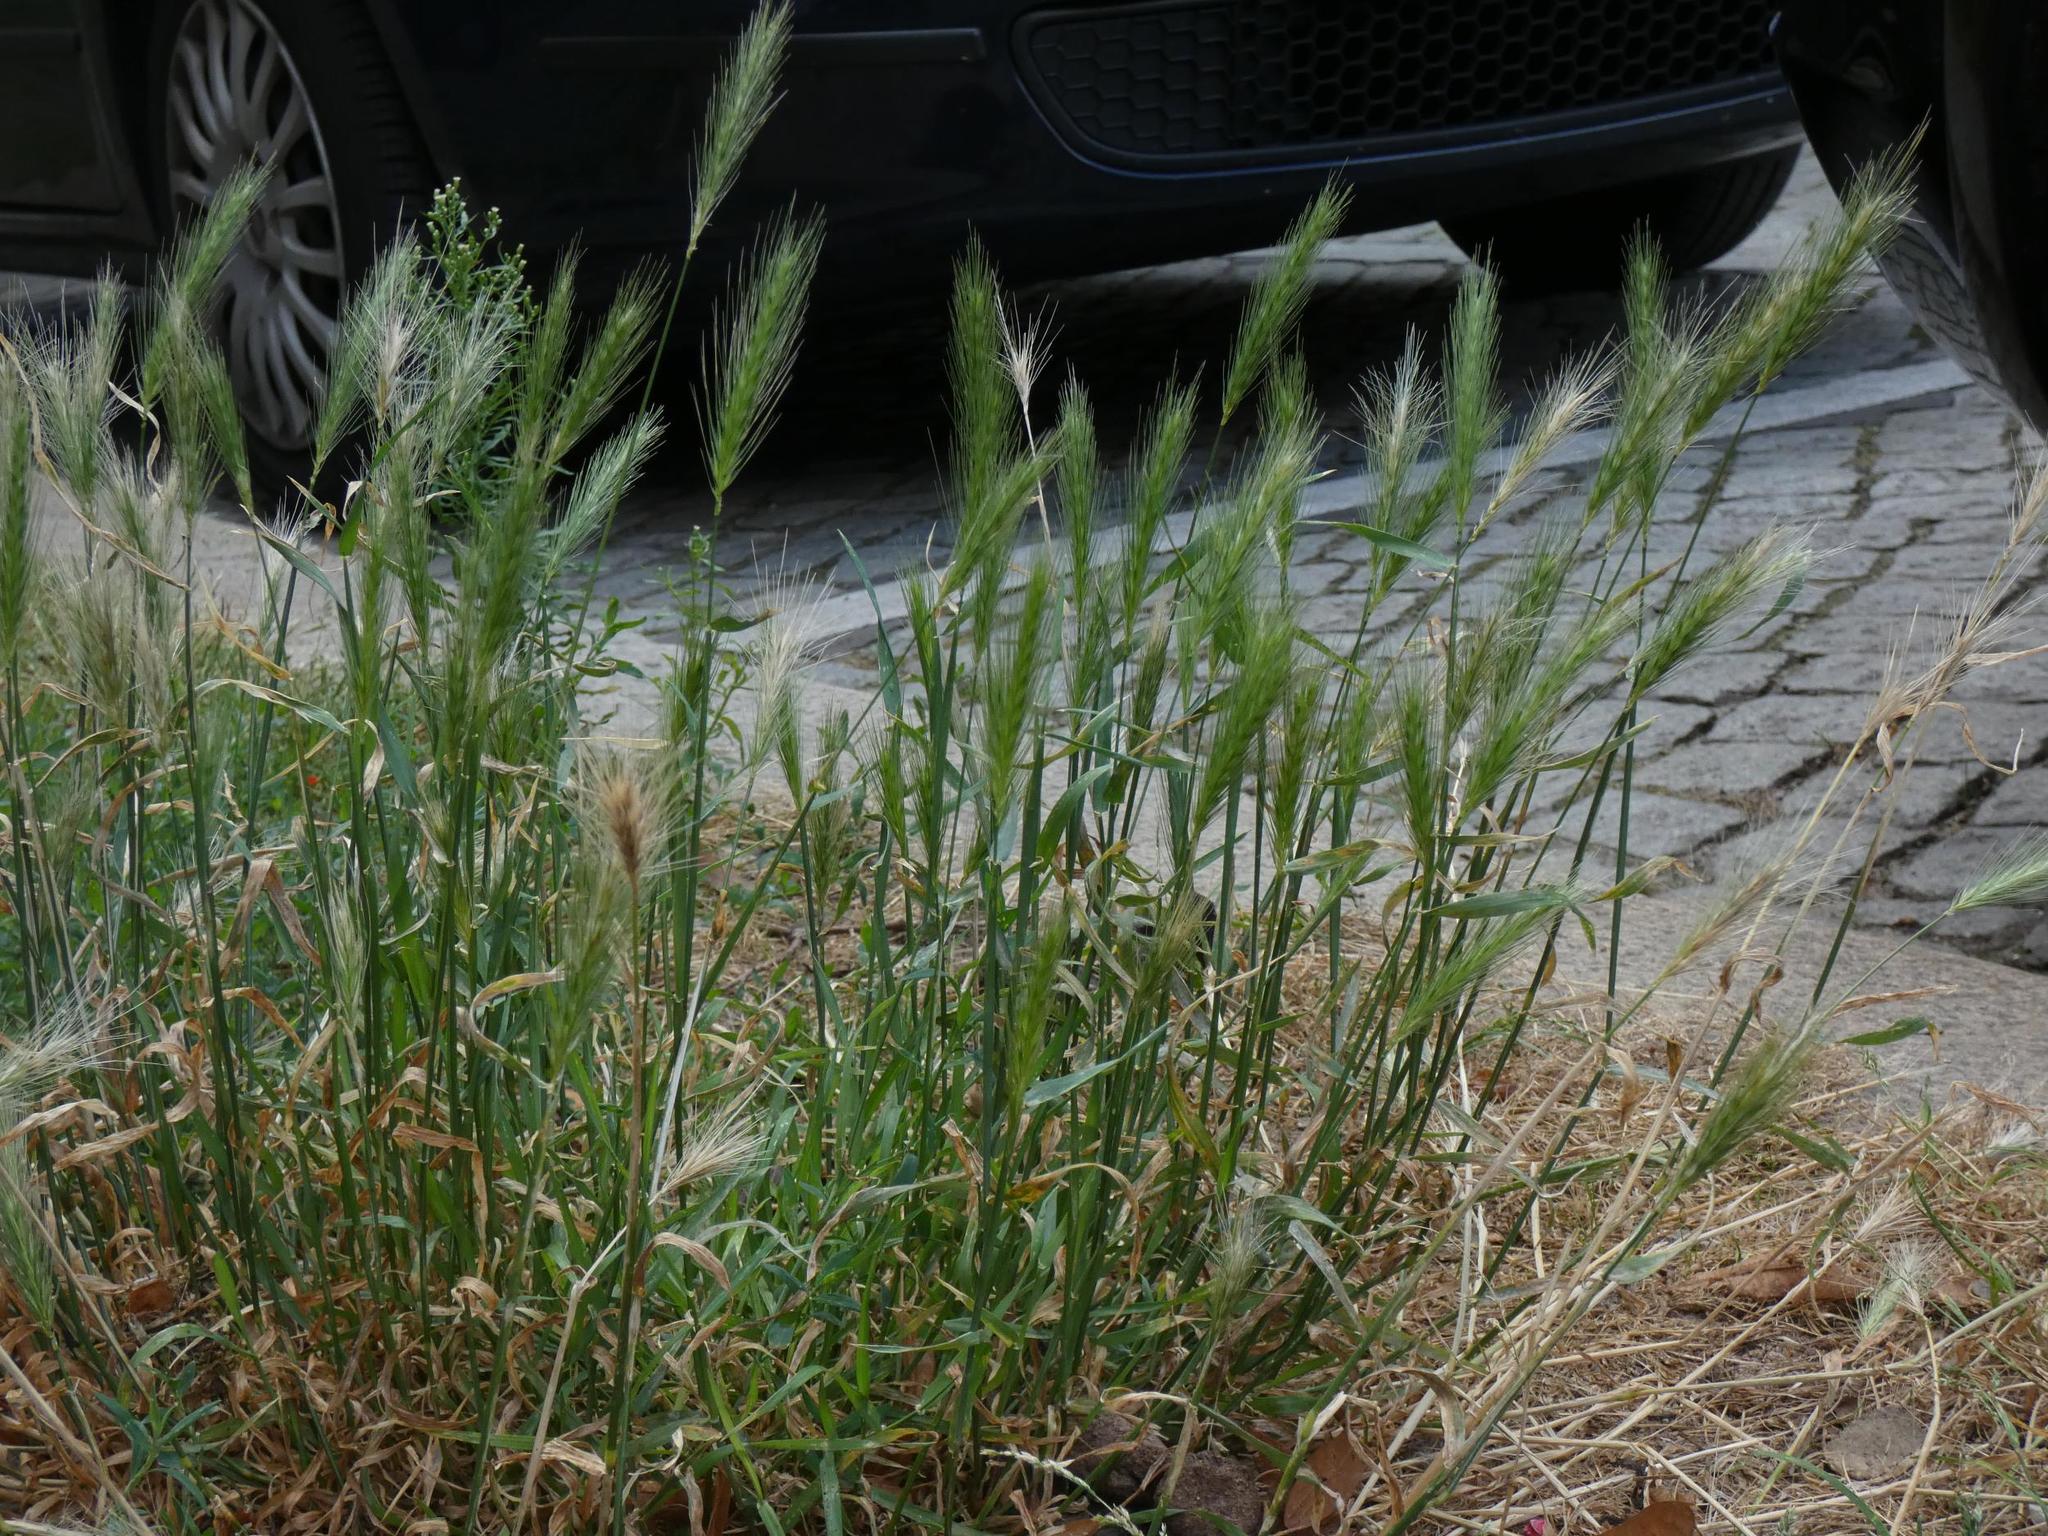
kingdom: Plantae
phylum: Tracheophyta
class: Liliopsida
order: Poales
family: Poaceae
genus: Hordeum
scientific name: Hordeum murinum
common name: Wall barley
